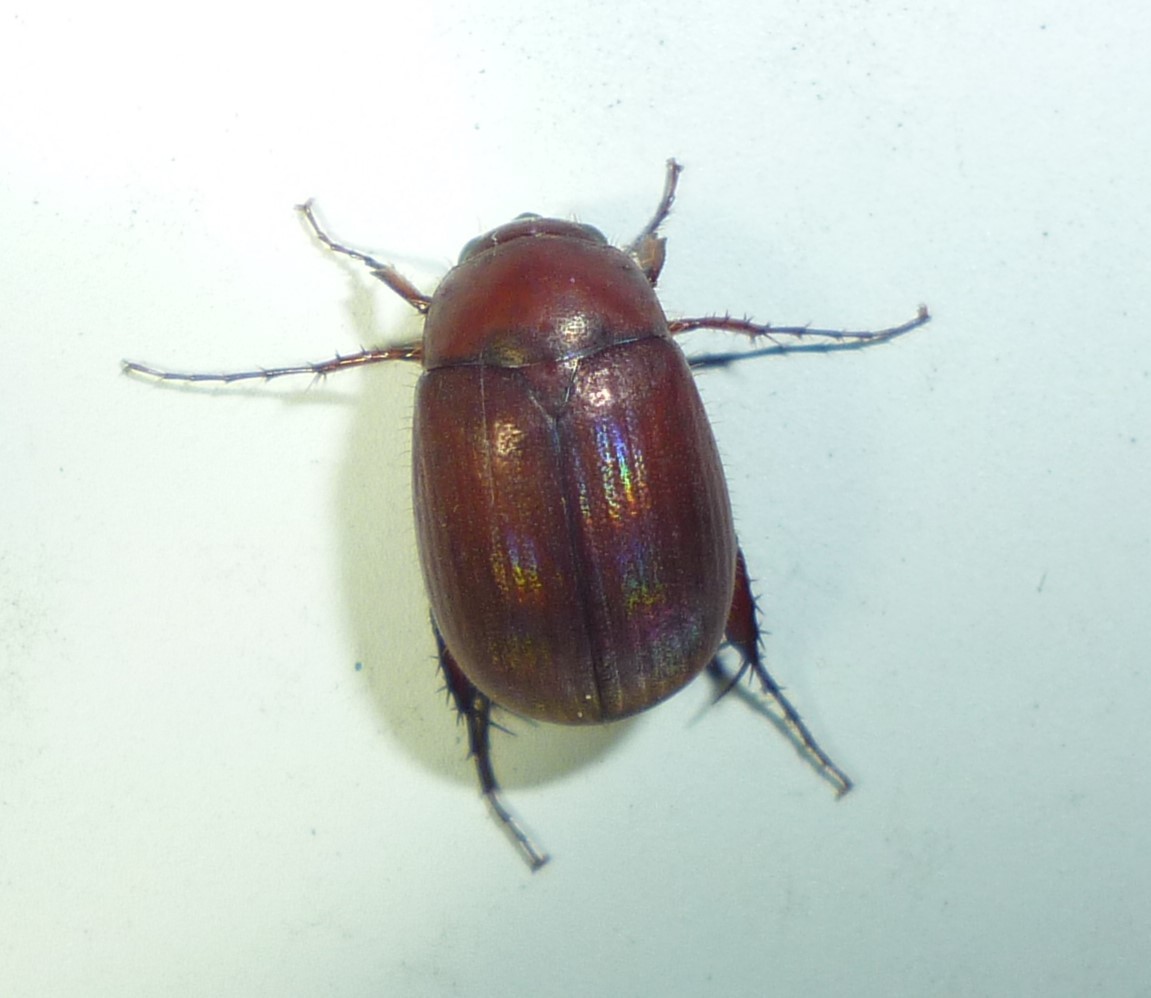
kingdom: Animalia
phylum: Arthropoda
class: Insecta
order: Coleoptera
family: Scarabaeidae
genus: Maladera
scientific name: Maladera formosae
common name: Asiatic garden beetle
